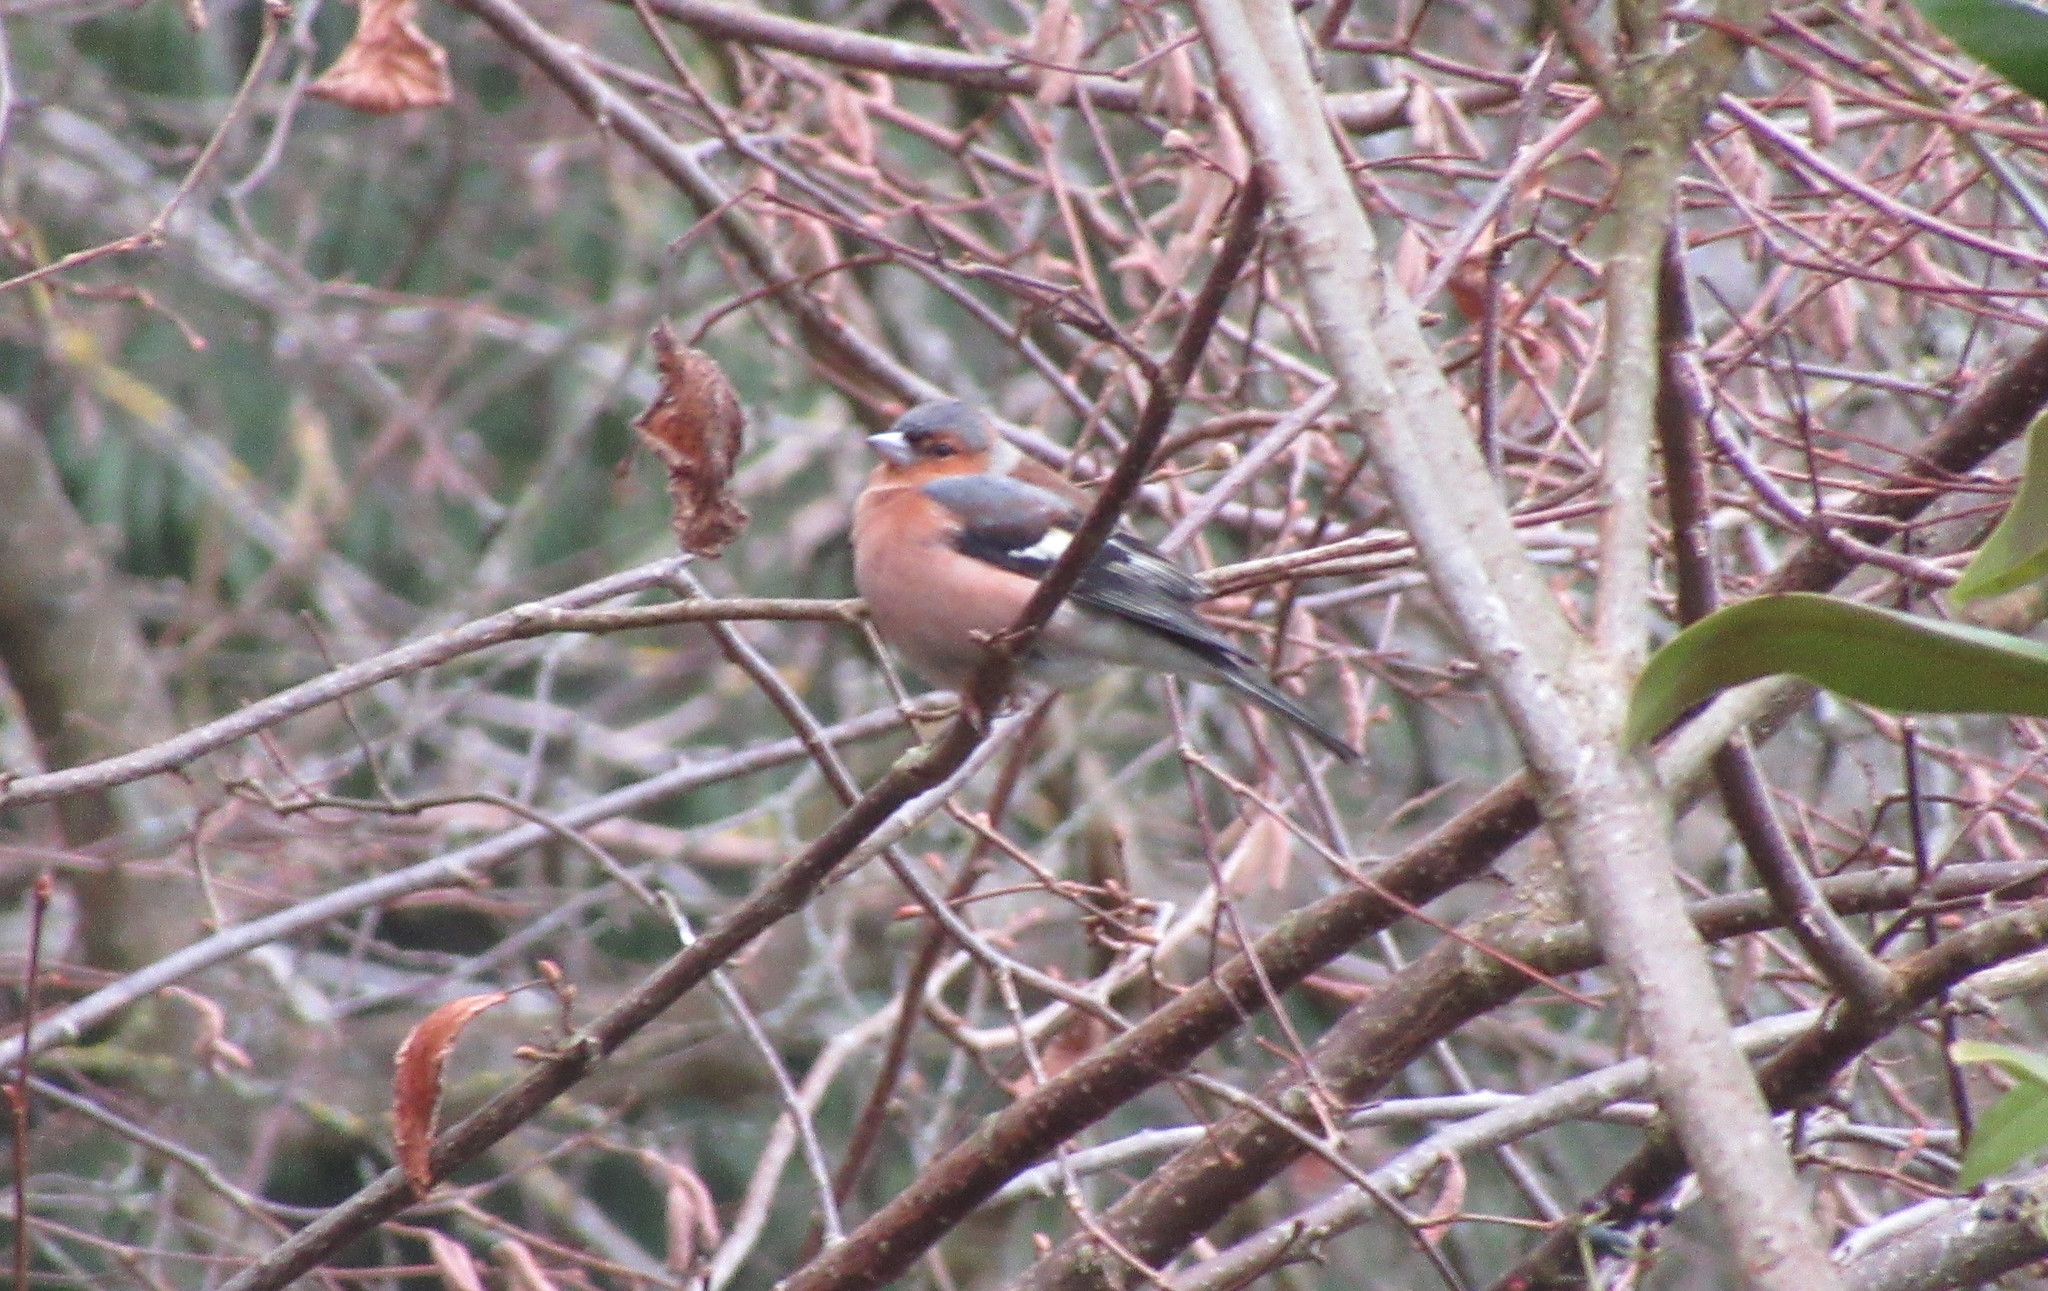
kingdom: Animalia
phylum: Chordata
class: Aves
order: Passeriformes
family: Fringillidae
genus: Fringilla
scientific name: Fringilla coelebs
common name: Common chaffinch
